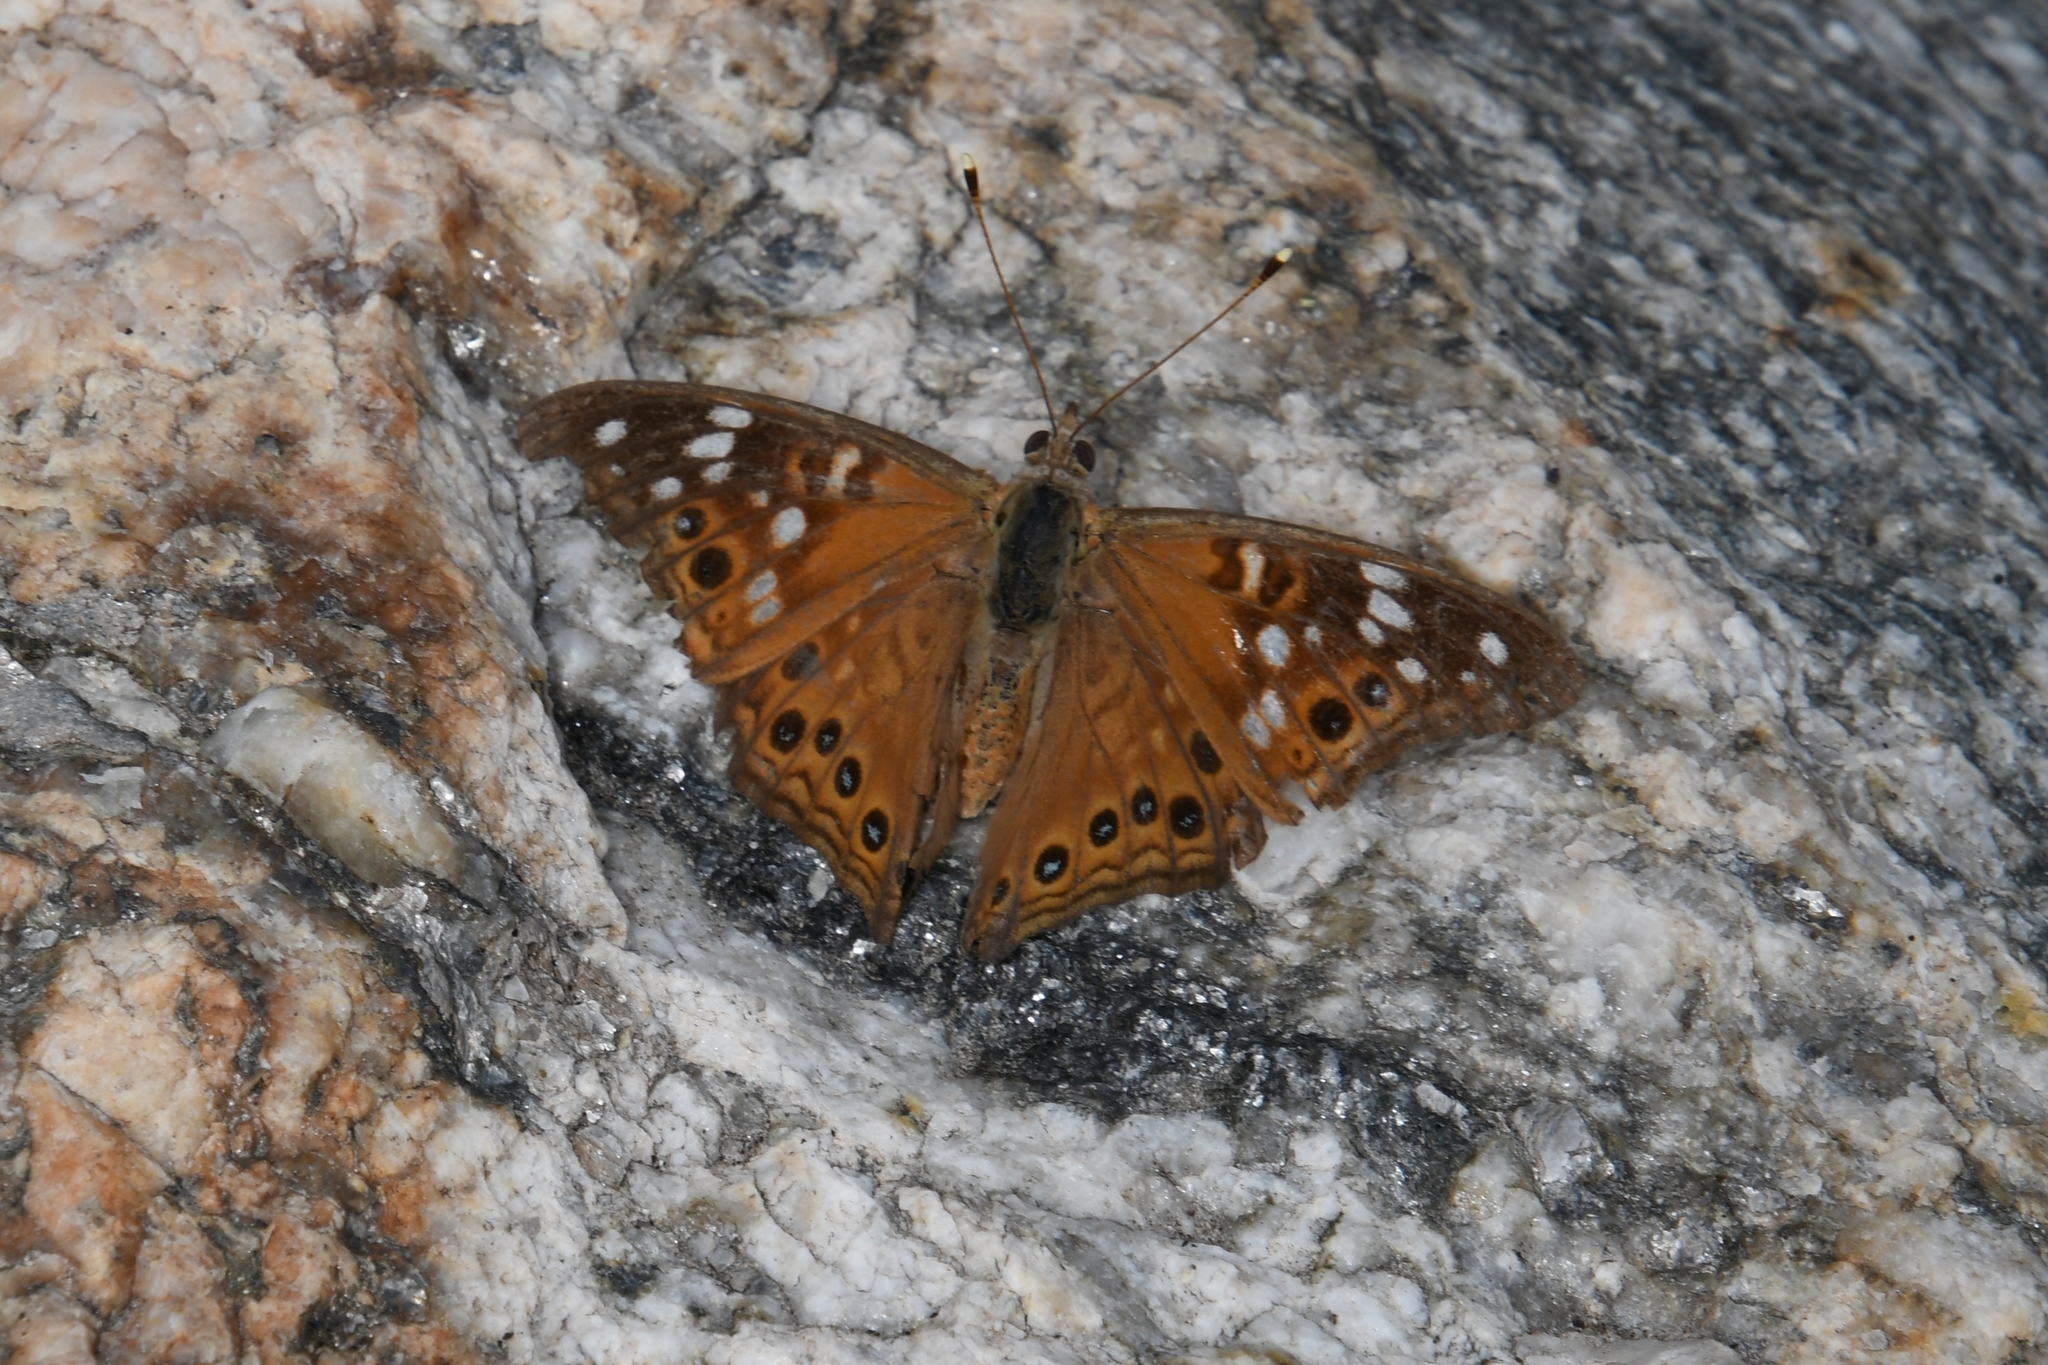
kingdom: Animalia
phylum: Arthropoda
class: Insecta
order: Lepidoptera
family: Nymphalidae
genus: Asterocampa
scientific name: Asterocampa leilia
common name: Empress leilia
